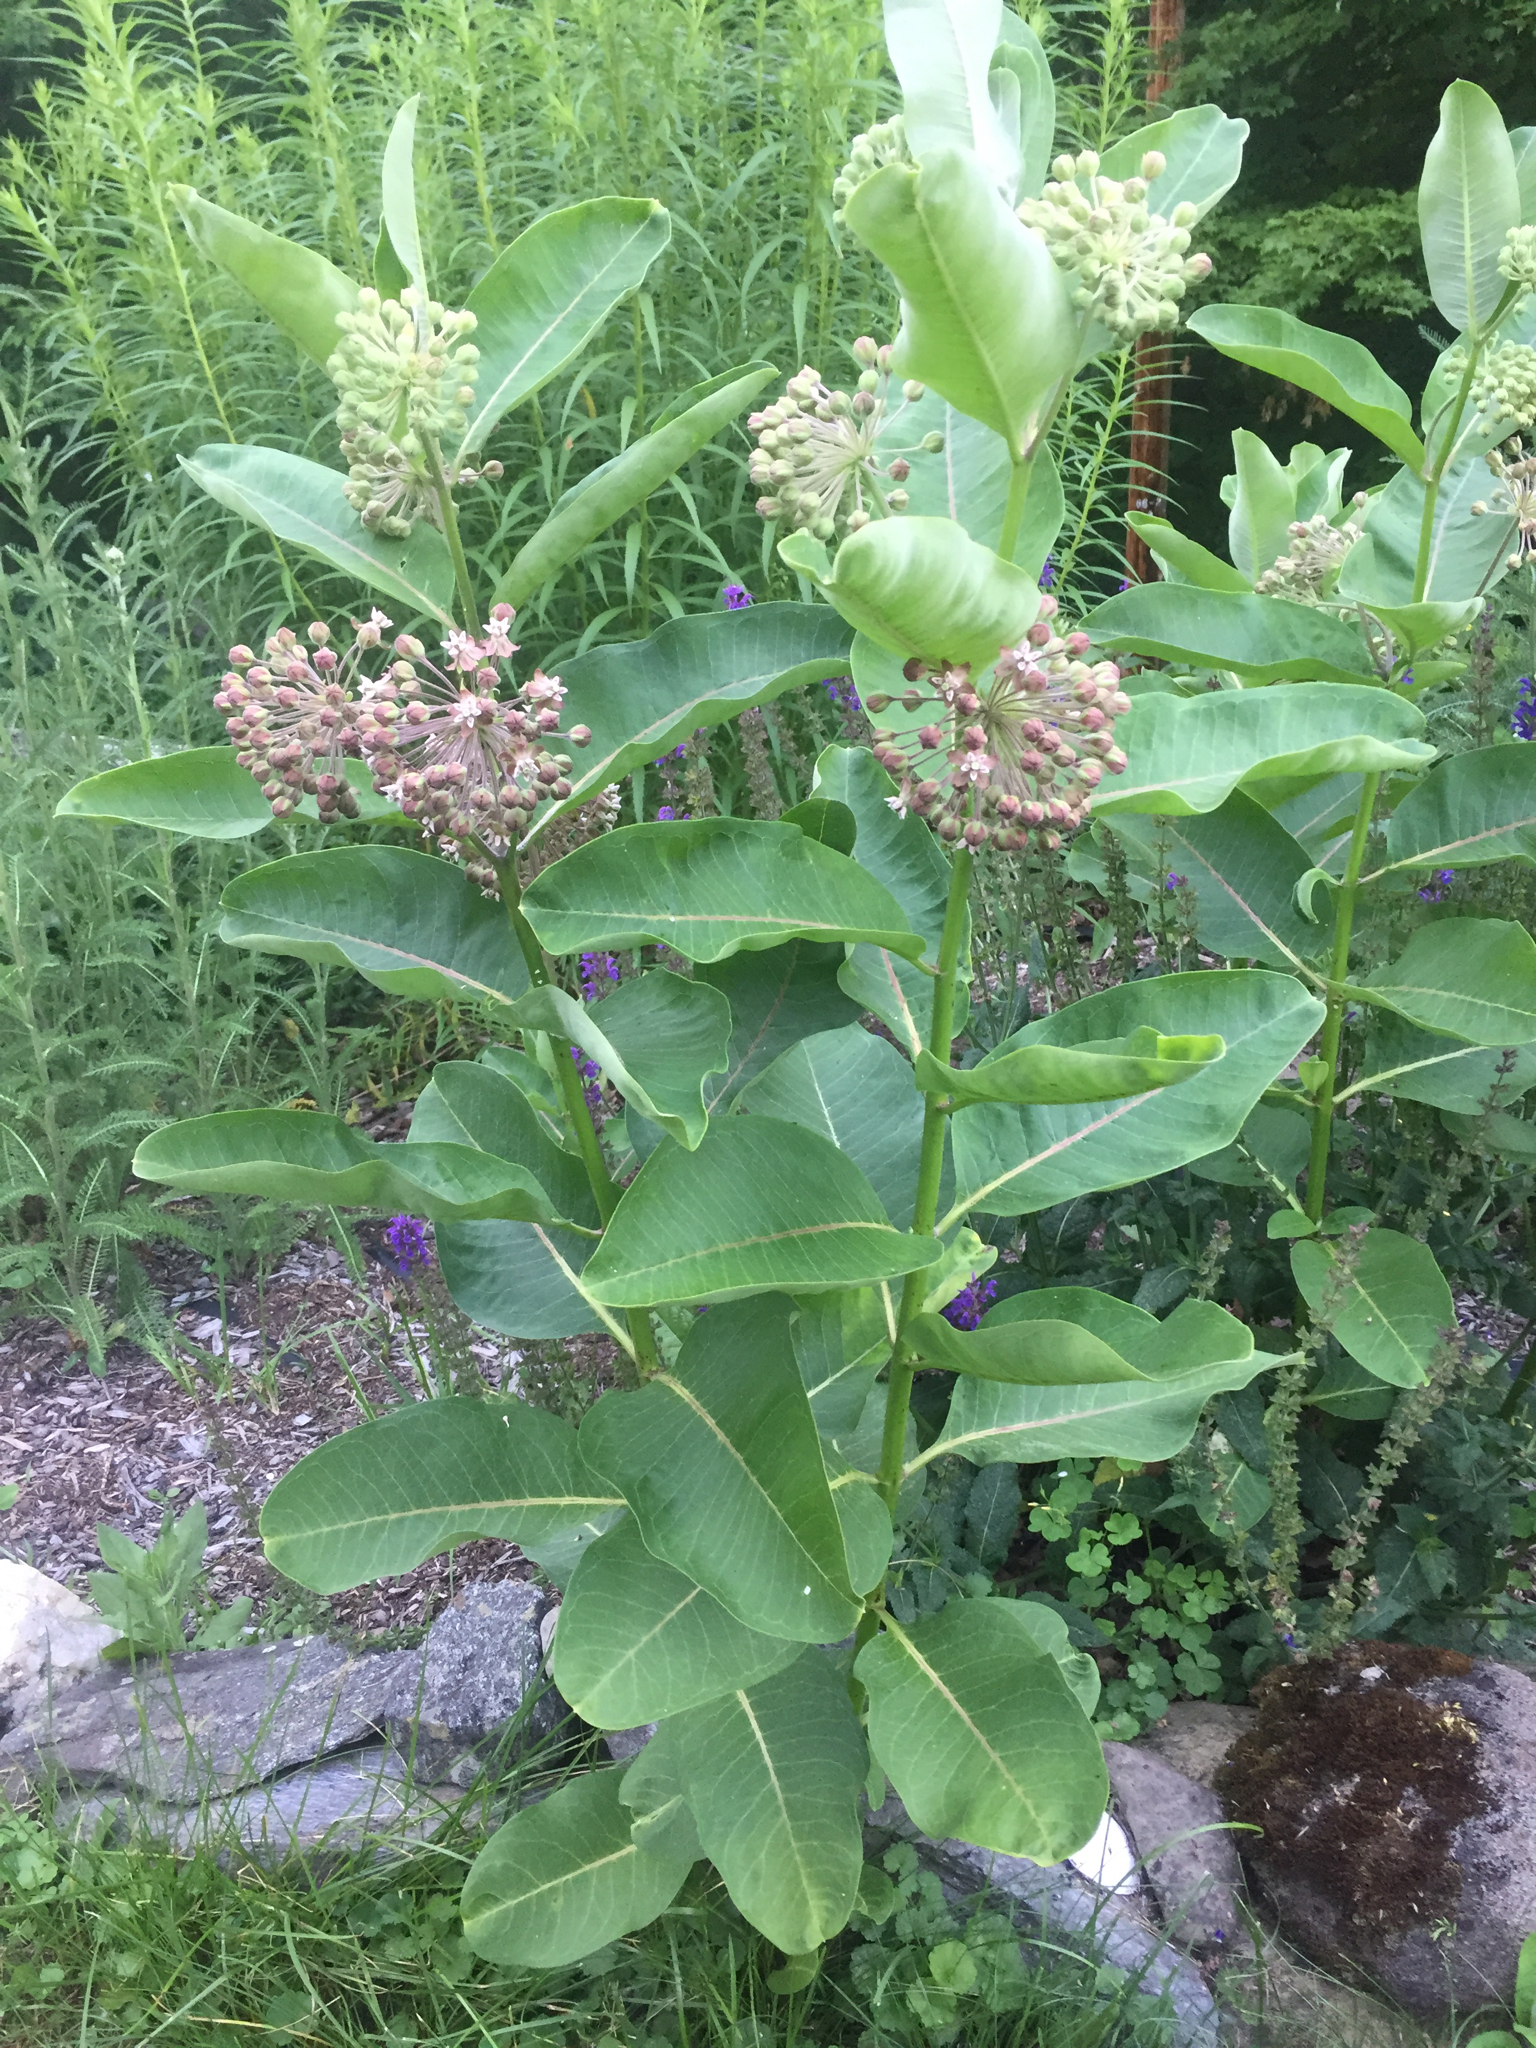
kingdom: Plantae
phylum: Tracheophyta
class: Magnoliopsida
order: Gentianales
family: Apocynaceae
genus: Asclepias
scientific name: Asclepias syriaca
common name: Common milkweed
